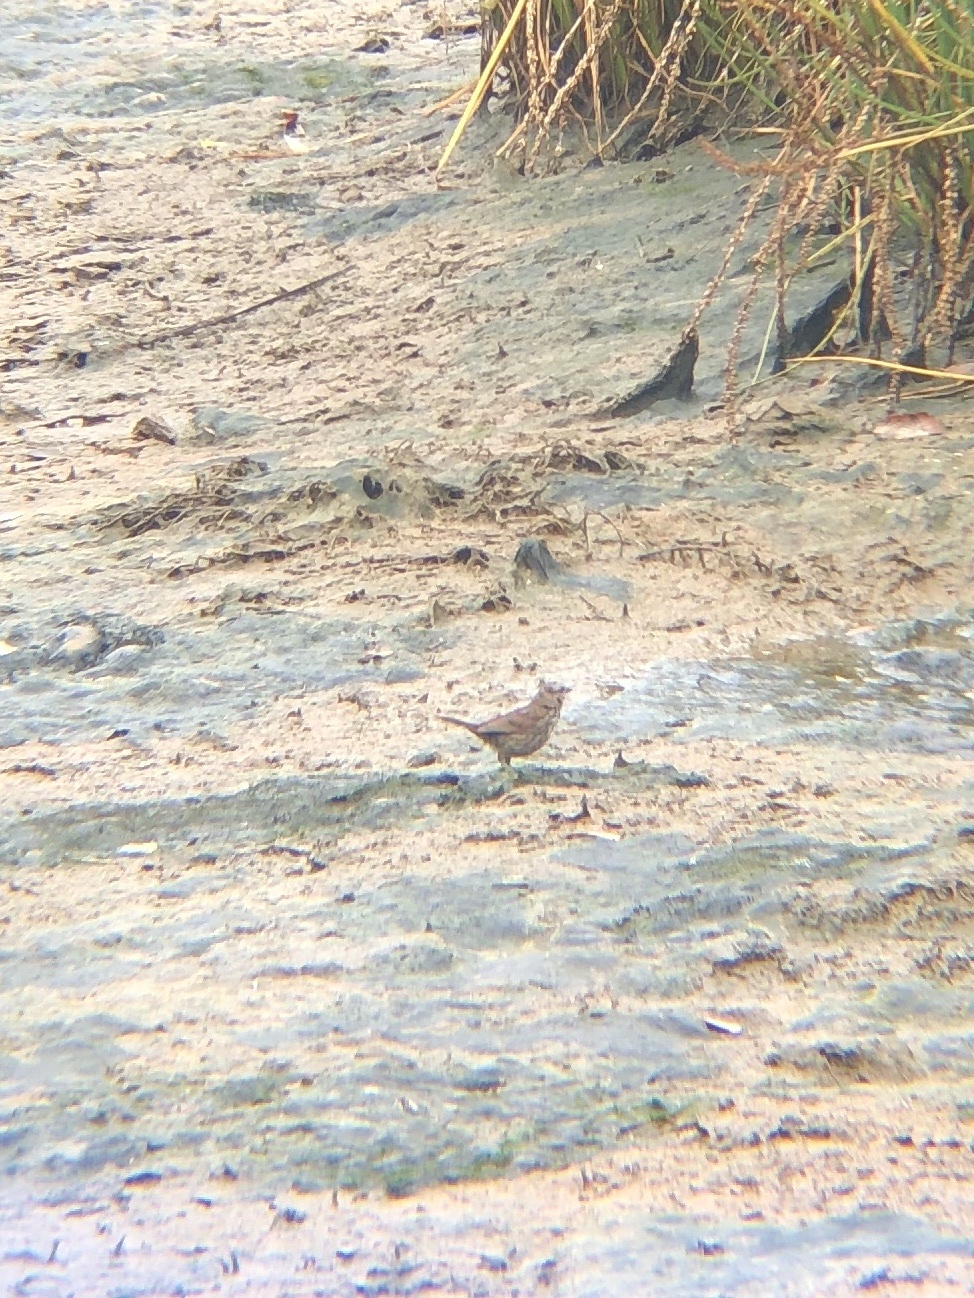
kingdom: Animalia
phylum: Chordata
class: Aves
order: Passeriformes
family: Passerellidae
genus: Melospiza
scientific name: Melospiza melodia
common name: Song sparrow
